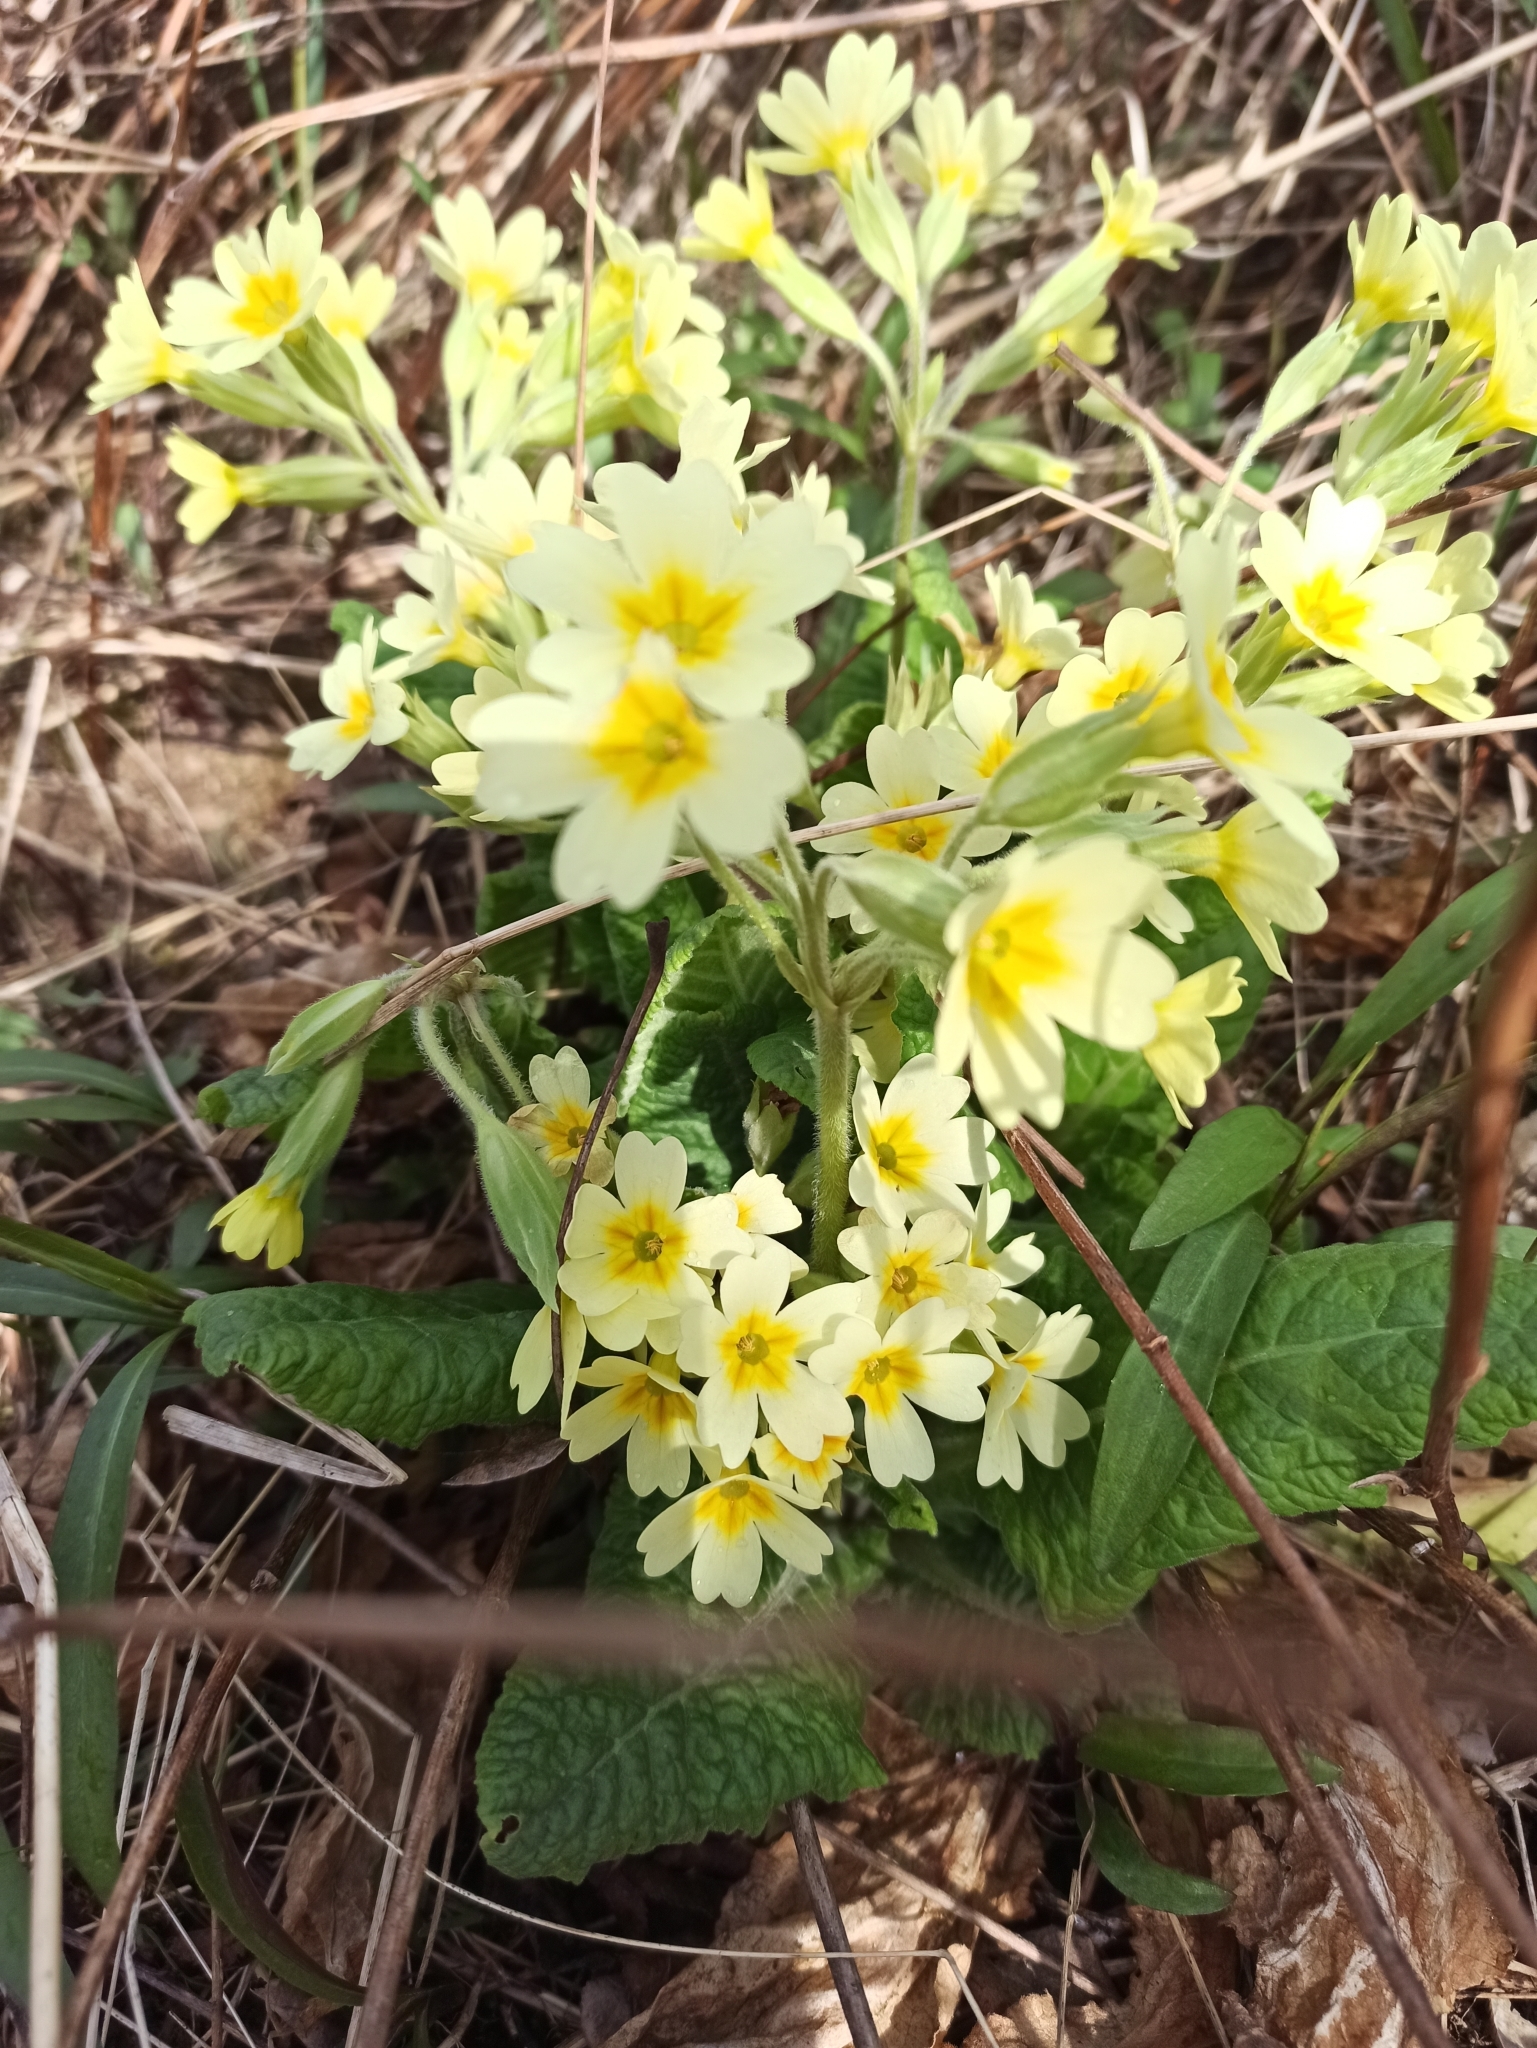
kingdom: Plantae
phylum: Tracheophyta
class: Magnoliopsida
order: Ericales
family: Primulaceae
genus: Primula
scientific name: Primula vulgaris
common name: Primrose
